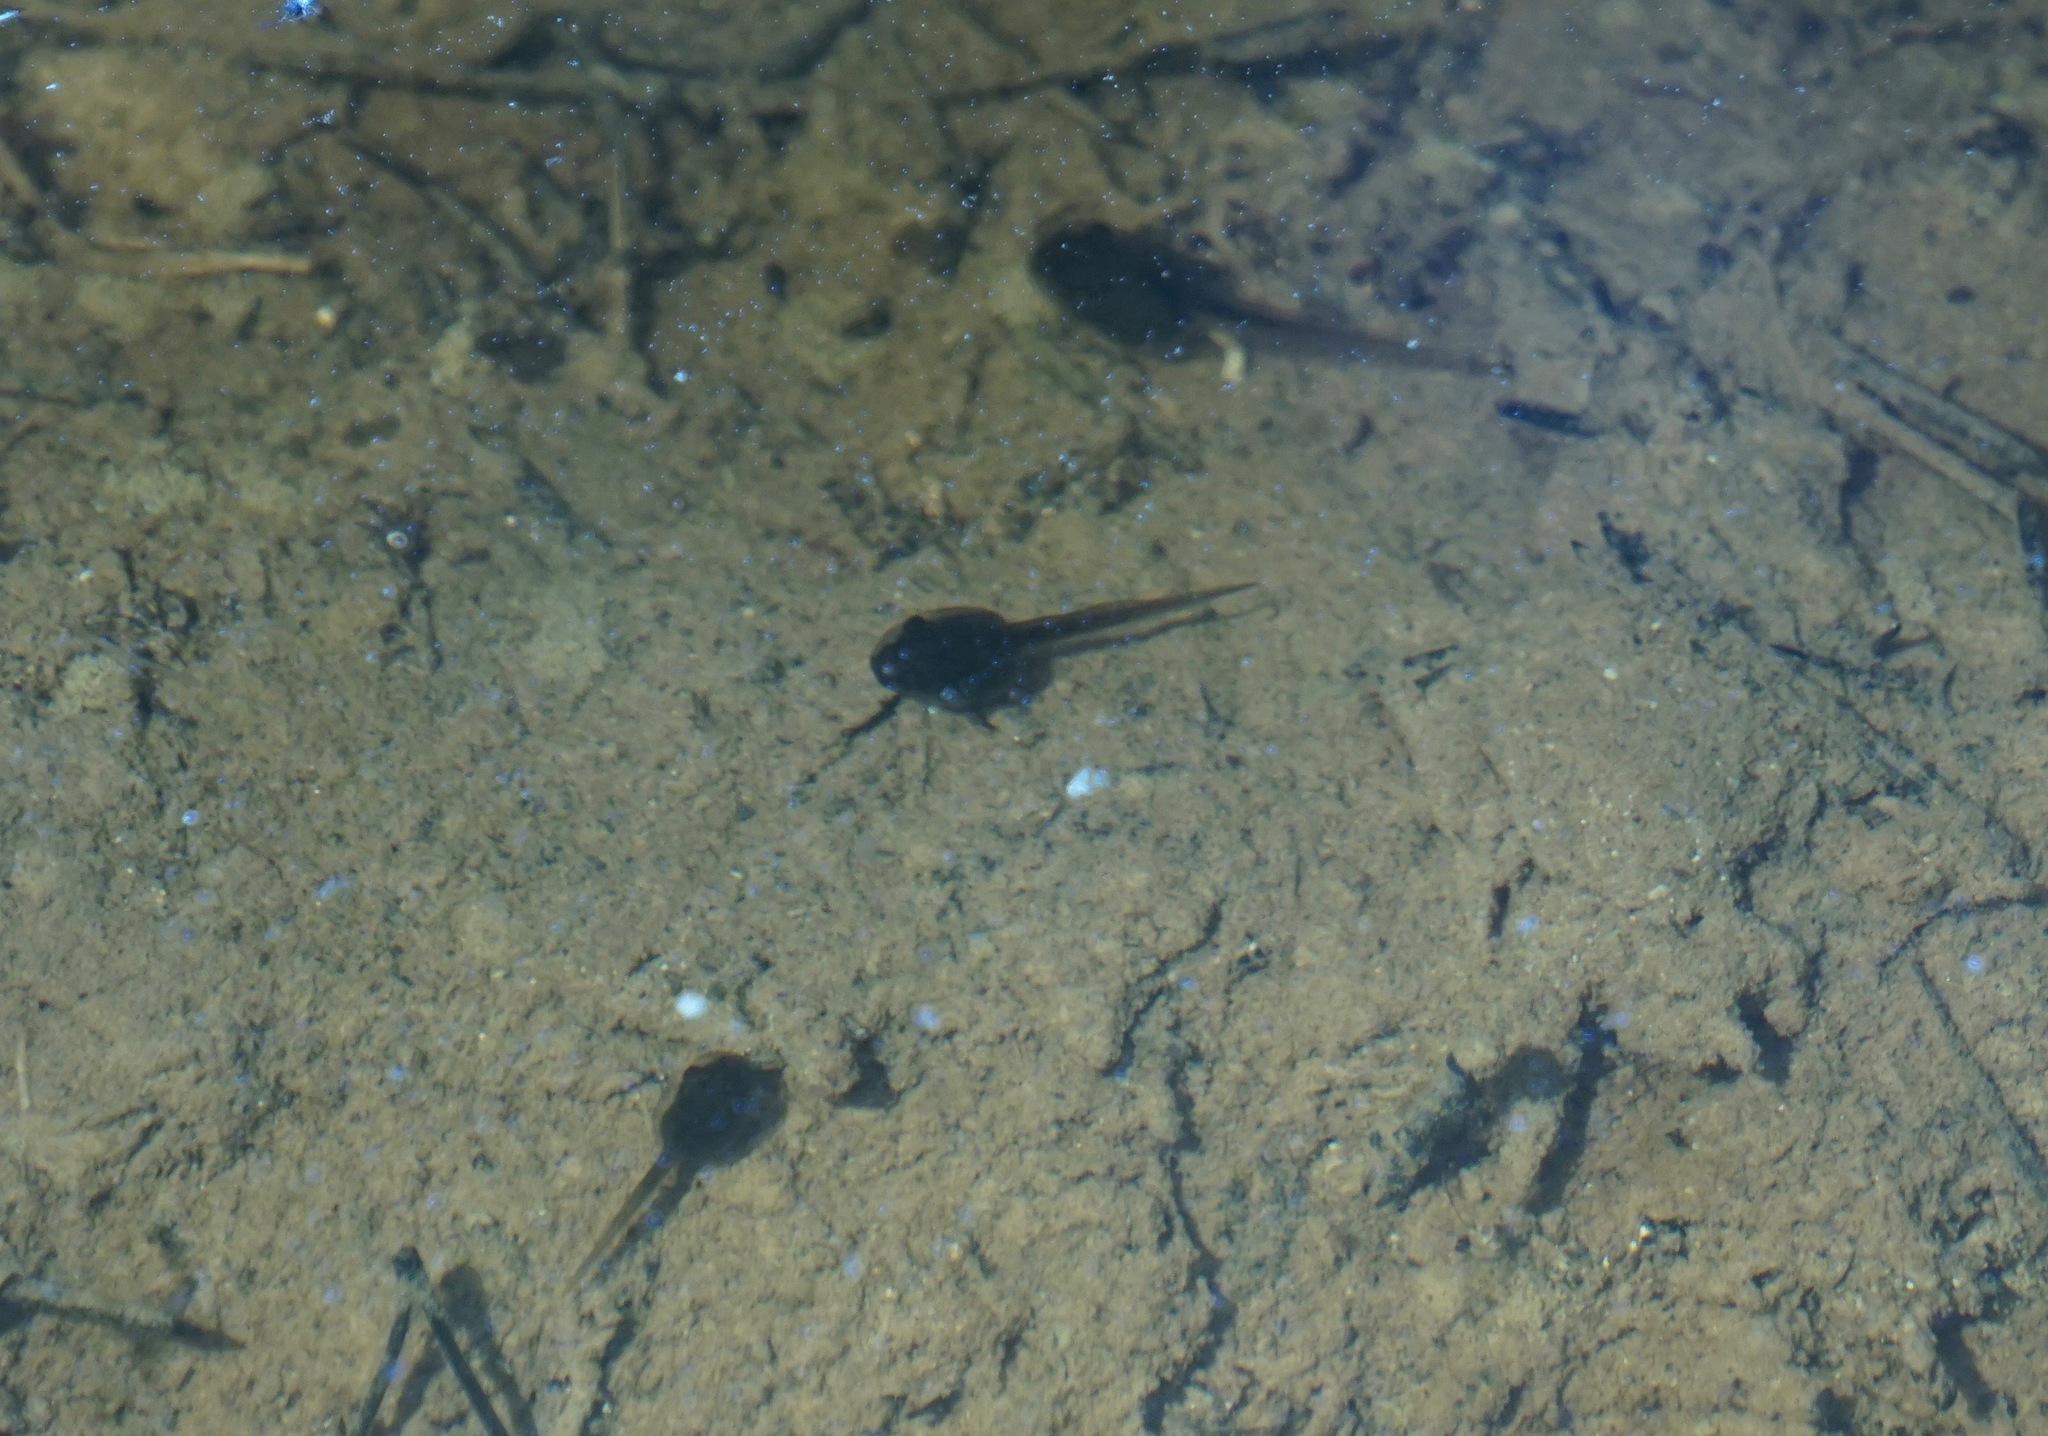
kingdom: Animalia
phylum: Chordata
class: Amphibia
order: Anura
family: Hylidae
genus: Pseudacris
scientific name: Pseudacris regilla
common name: Pacific chorus frog
